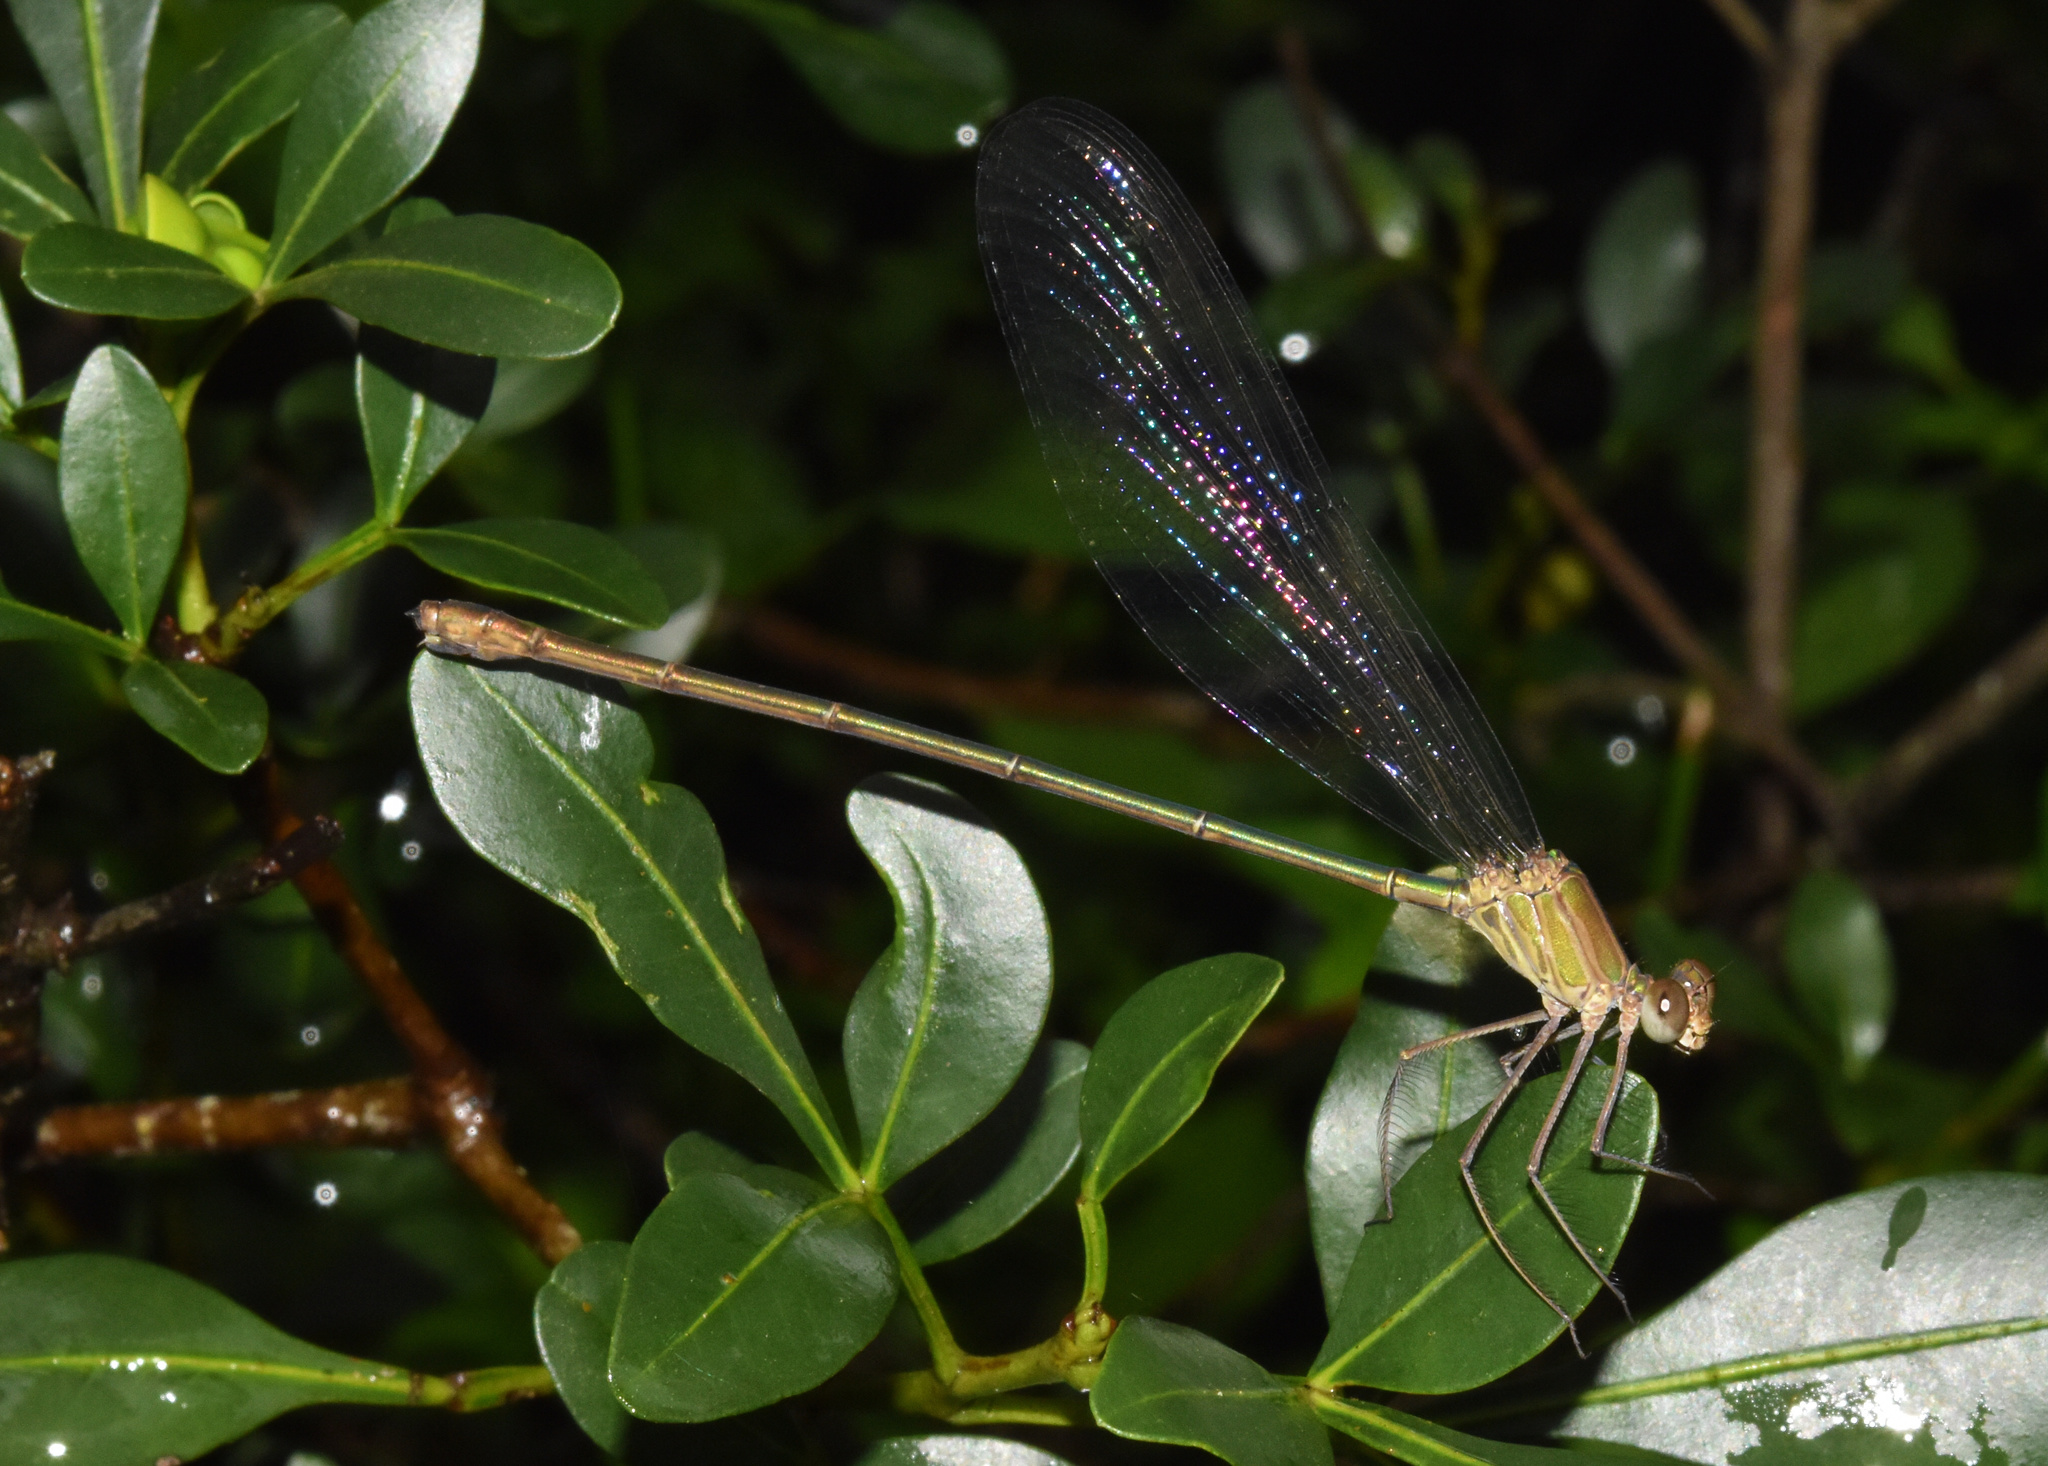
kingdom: Animalia
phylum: Arthropoda
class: Insecta
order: Odonata
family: Calopterygidae
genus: Phaon
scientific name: Phaon iridipennis
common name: Glistening demoiselle
